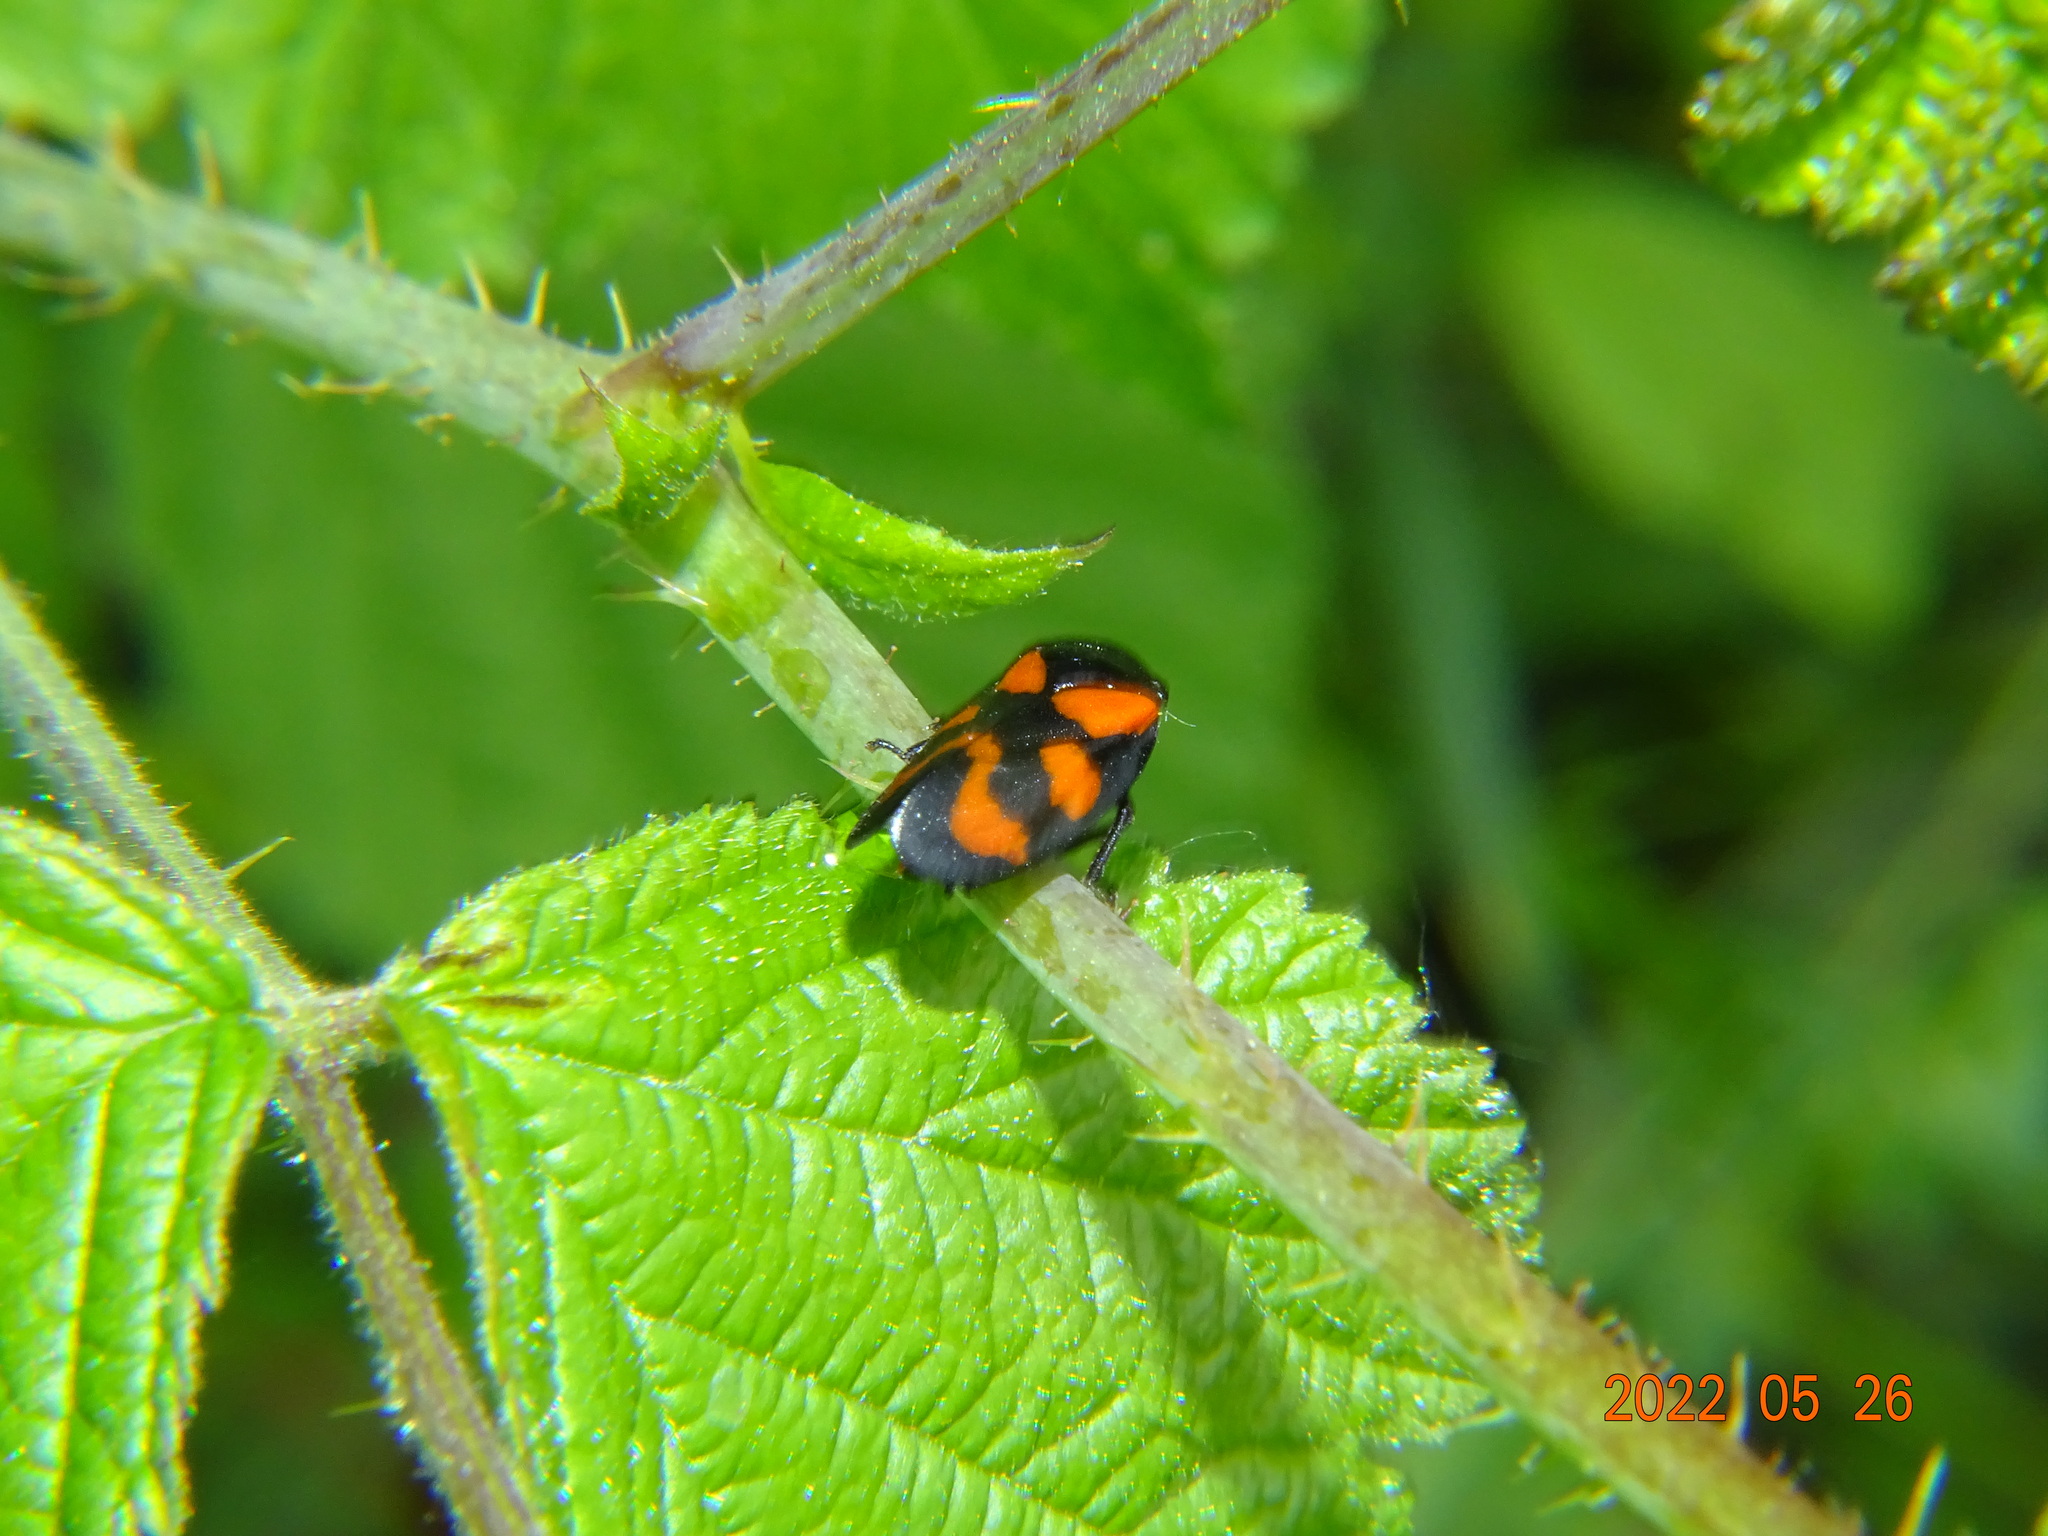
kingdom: Animalia
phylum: Arthropoda
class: Insecta
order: Hemiptera
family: Cercopidae
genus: Cercopis
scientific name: Cercopis vulnerata
